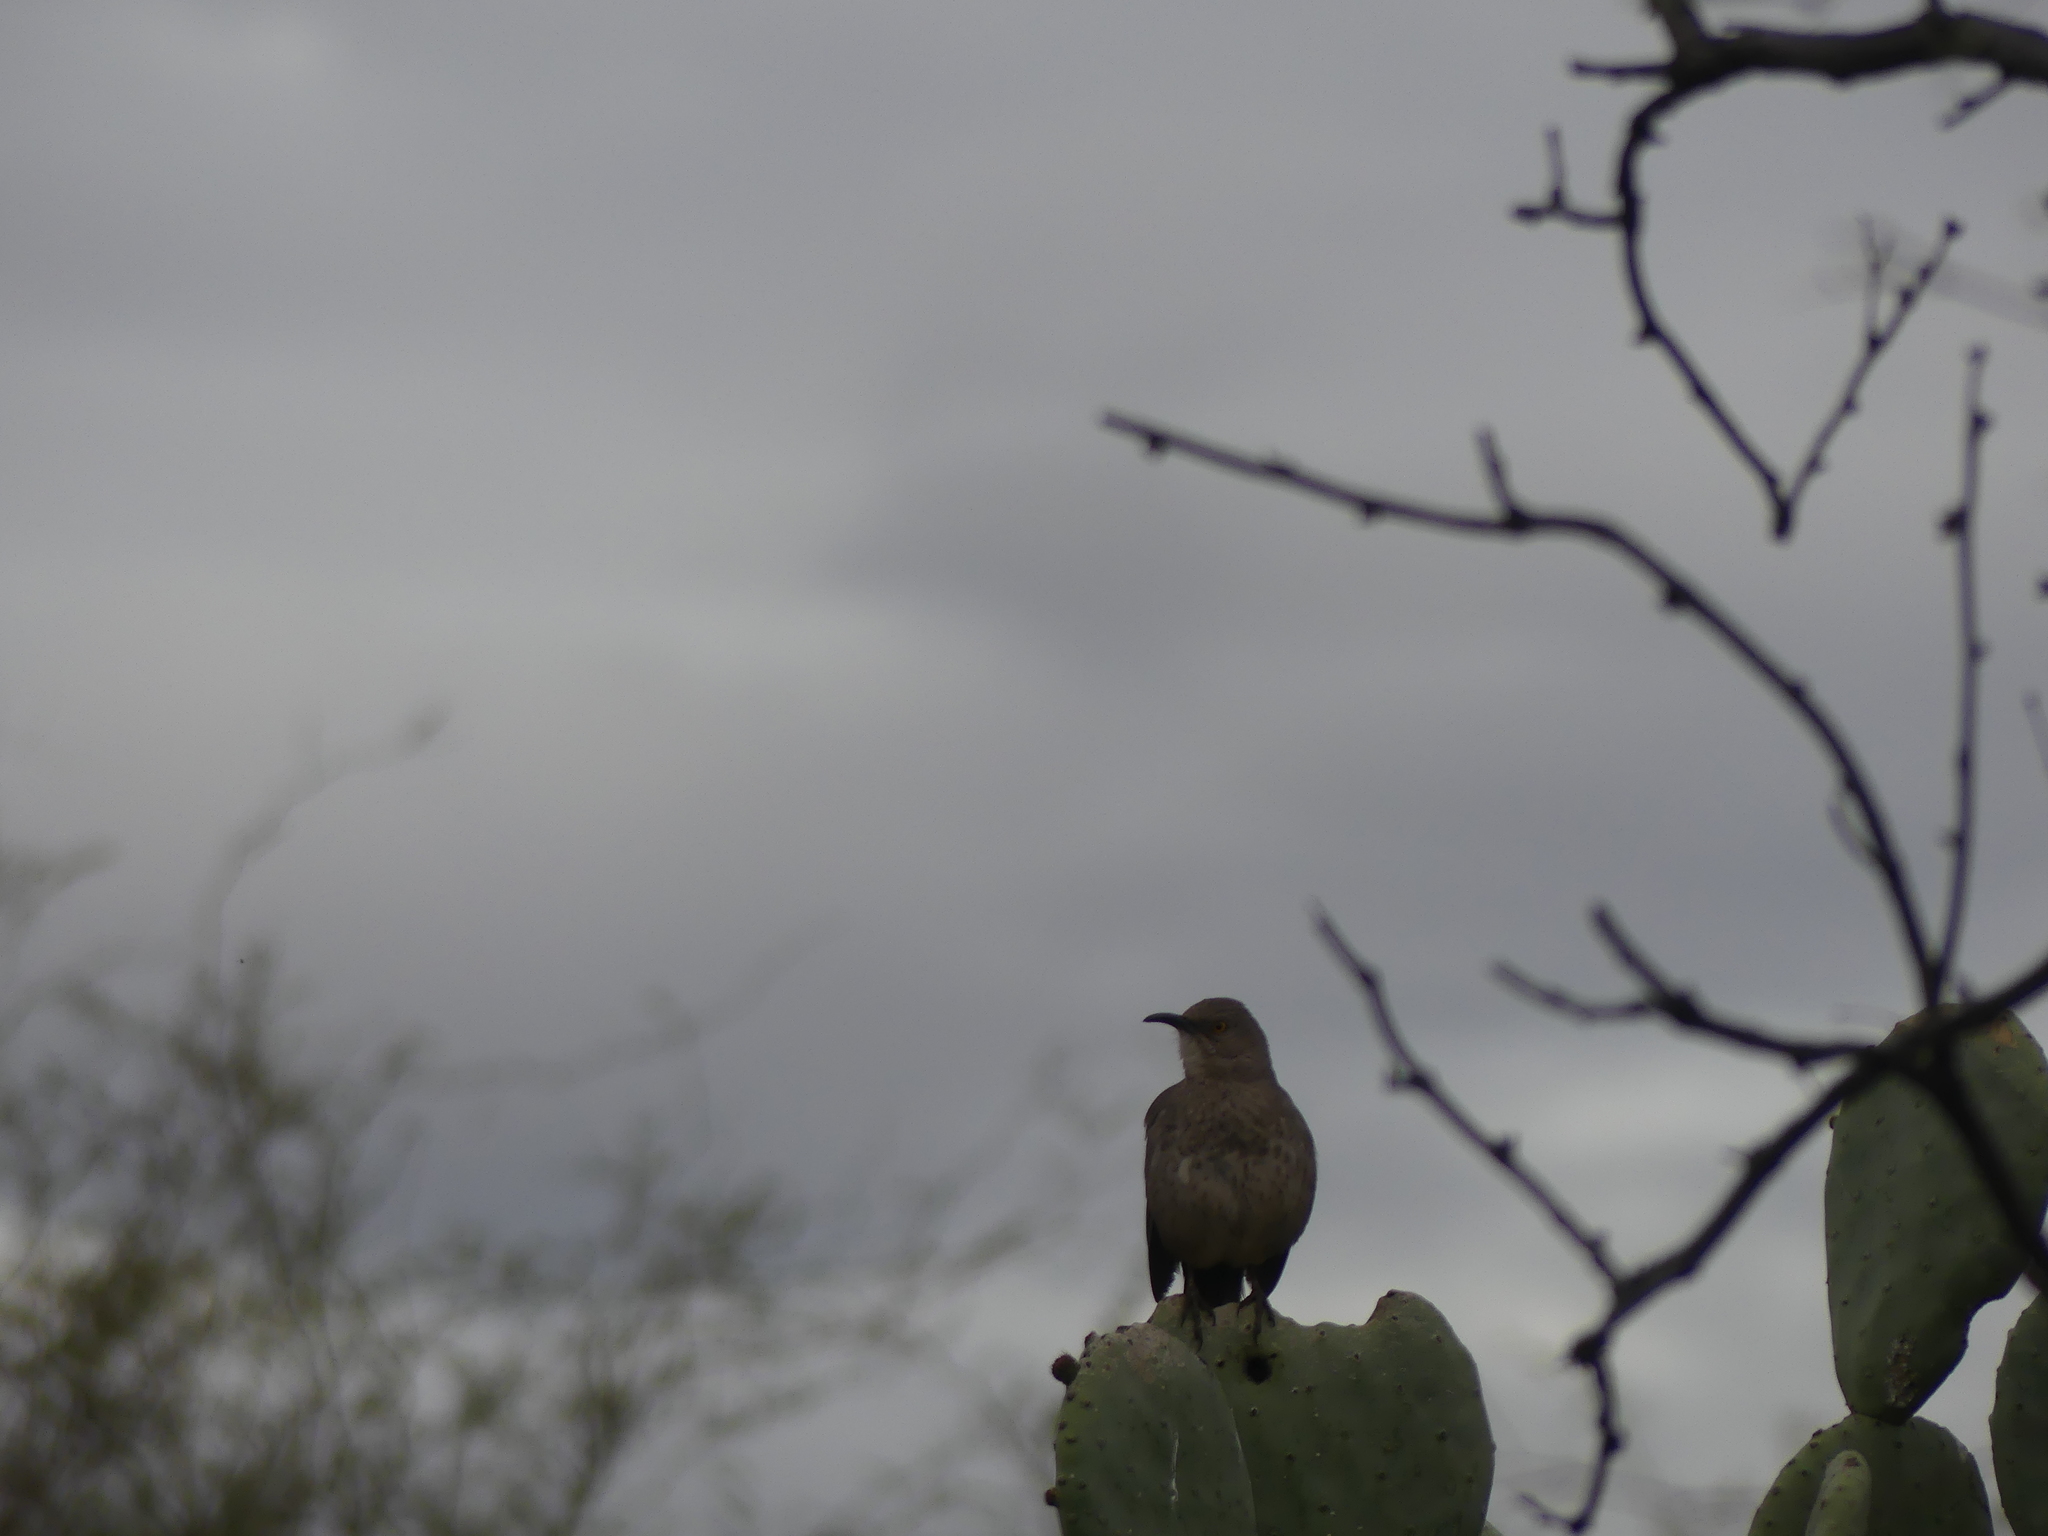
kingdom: Animalia
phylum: Chordata
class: Aves
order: Passeriformes
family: Mimidae
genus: Toxostoma
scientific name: Toxostoma curvirostre
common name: Curve-billed thrasher
